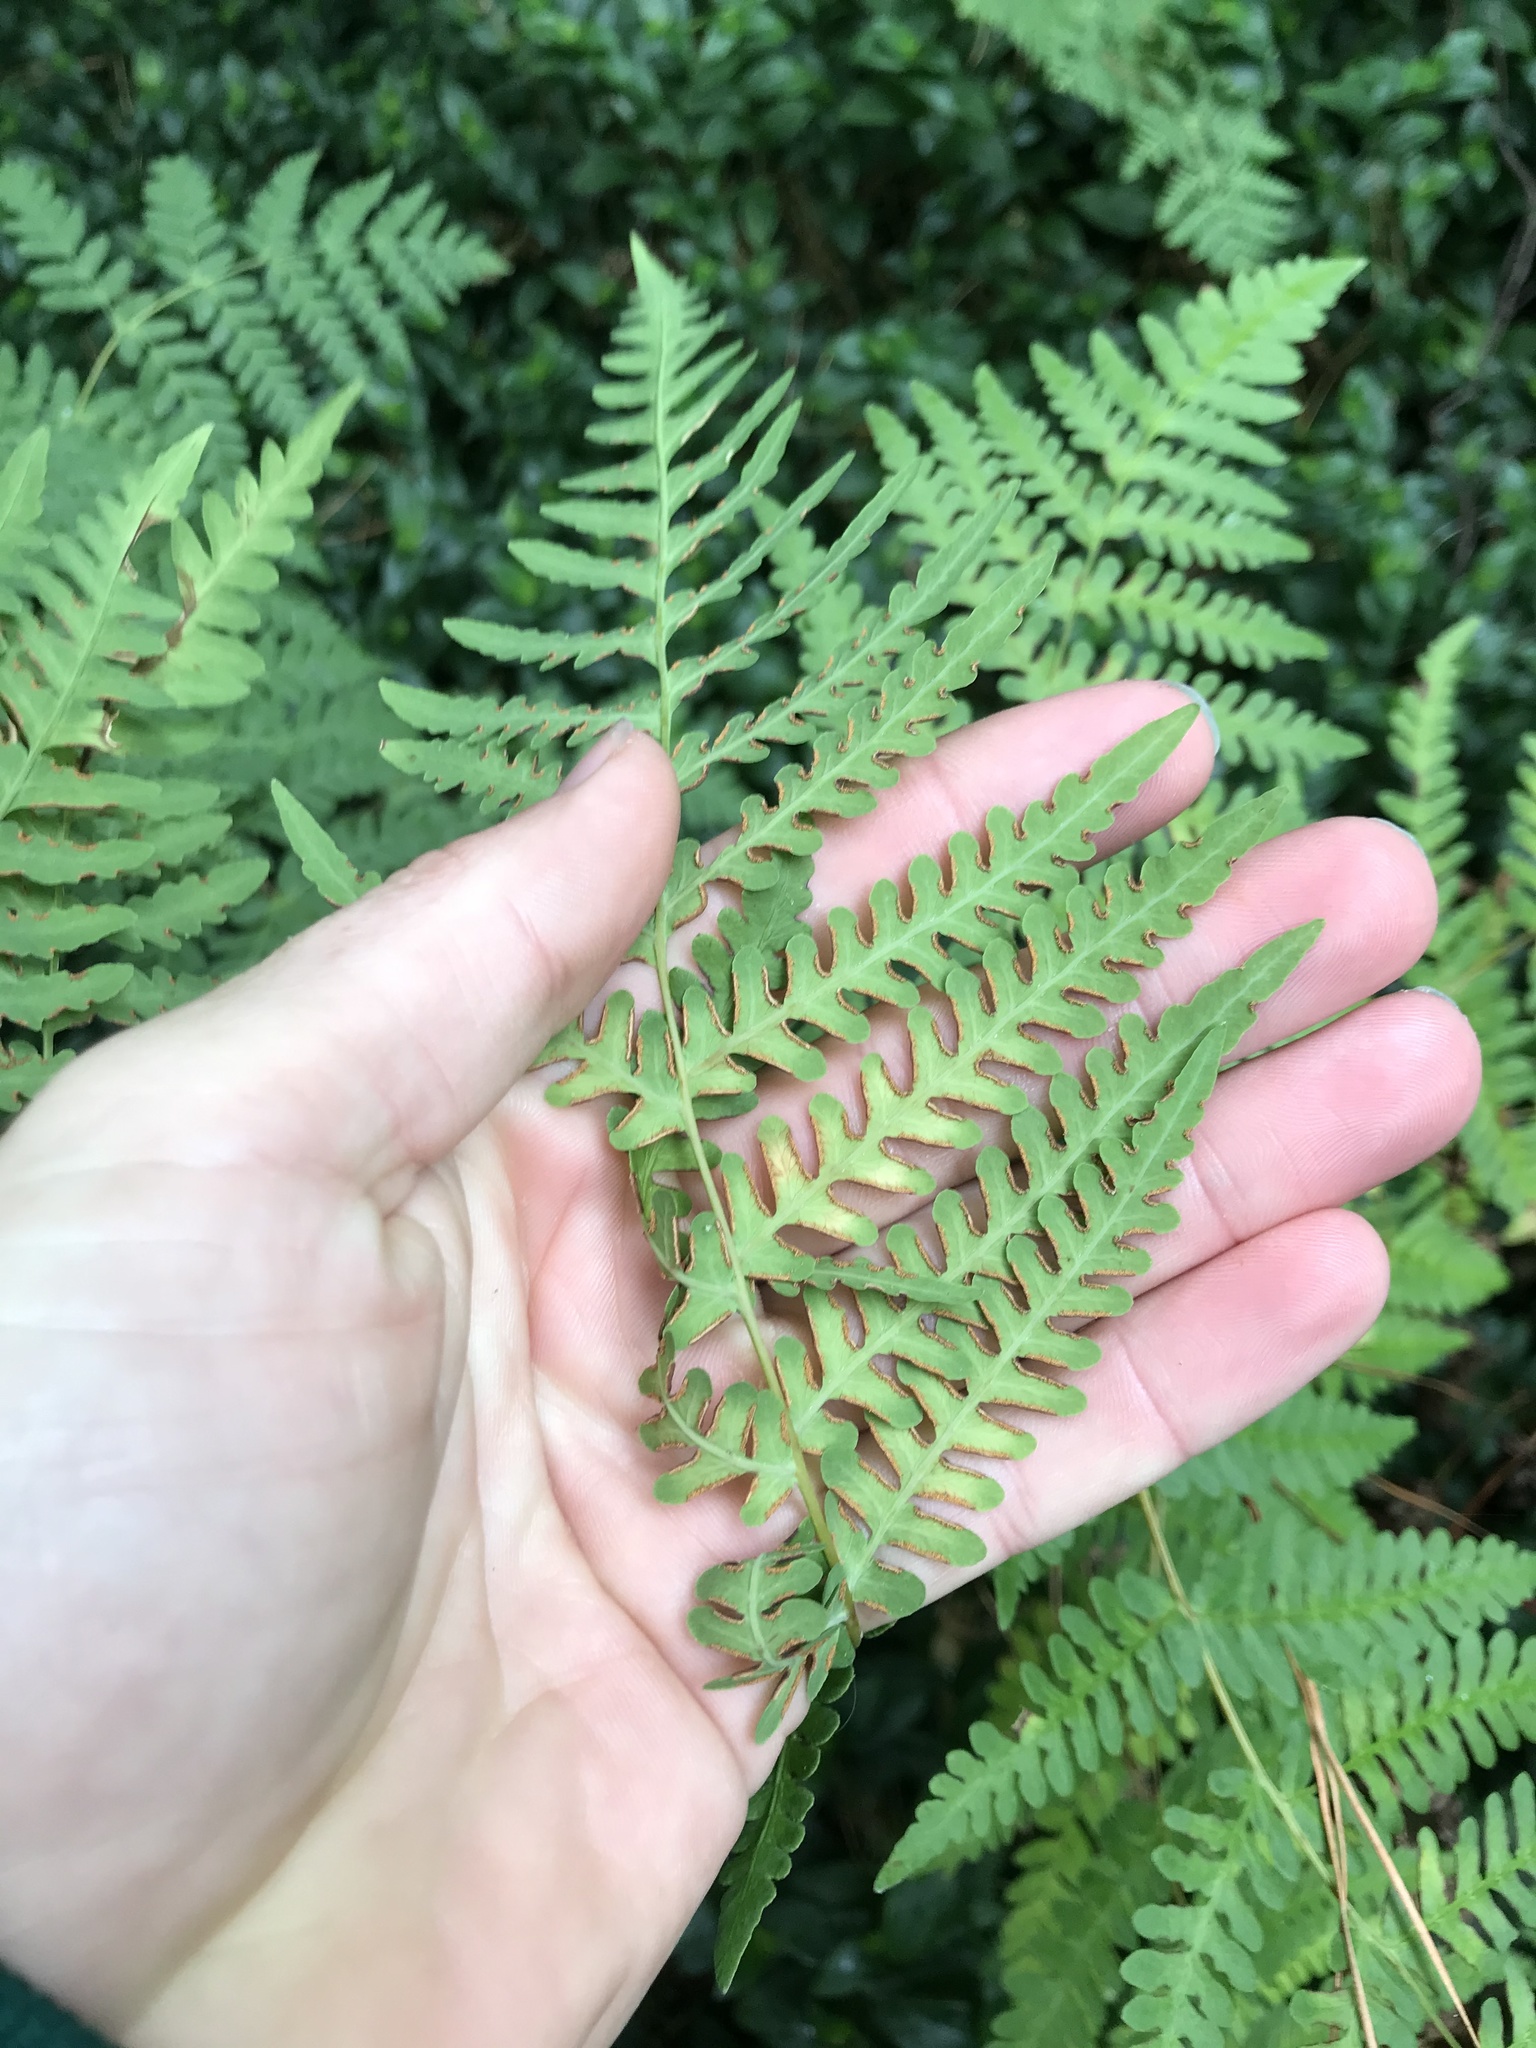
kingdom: Plantae
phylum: Tracheophyta
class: Polypodiopsida
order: Polypodiales
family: Dennstaedtiaceae
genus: Histiopteris
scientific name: Histiopteris incisa
